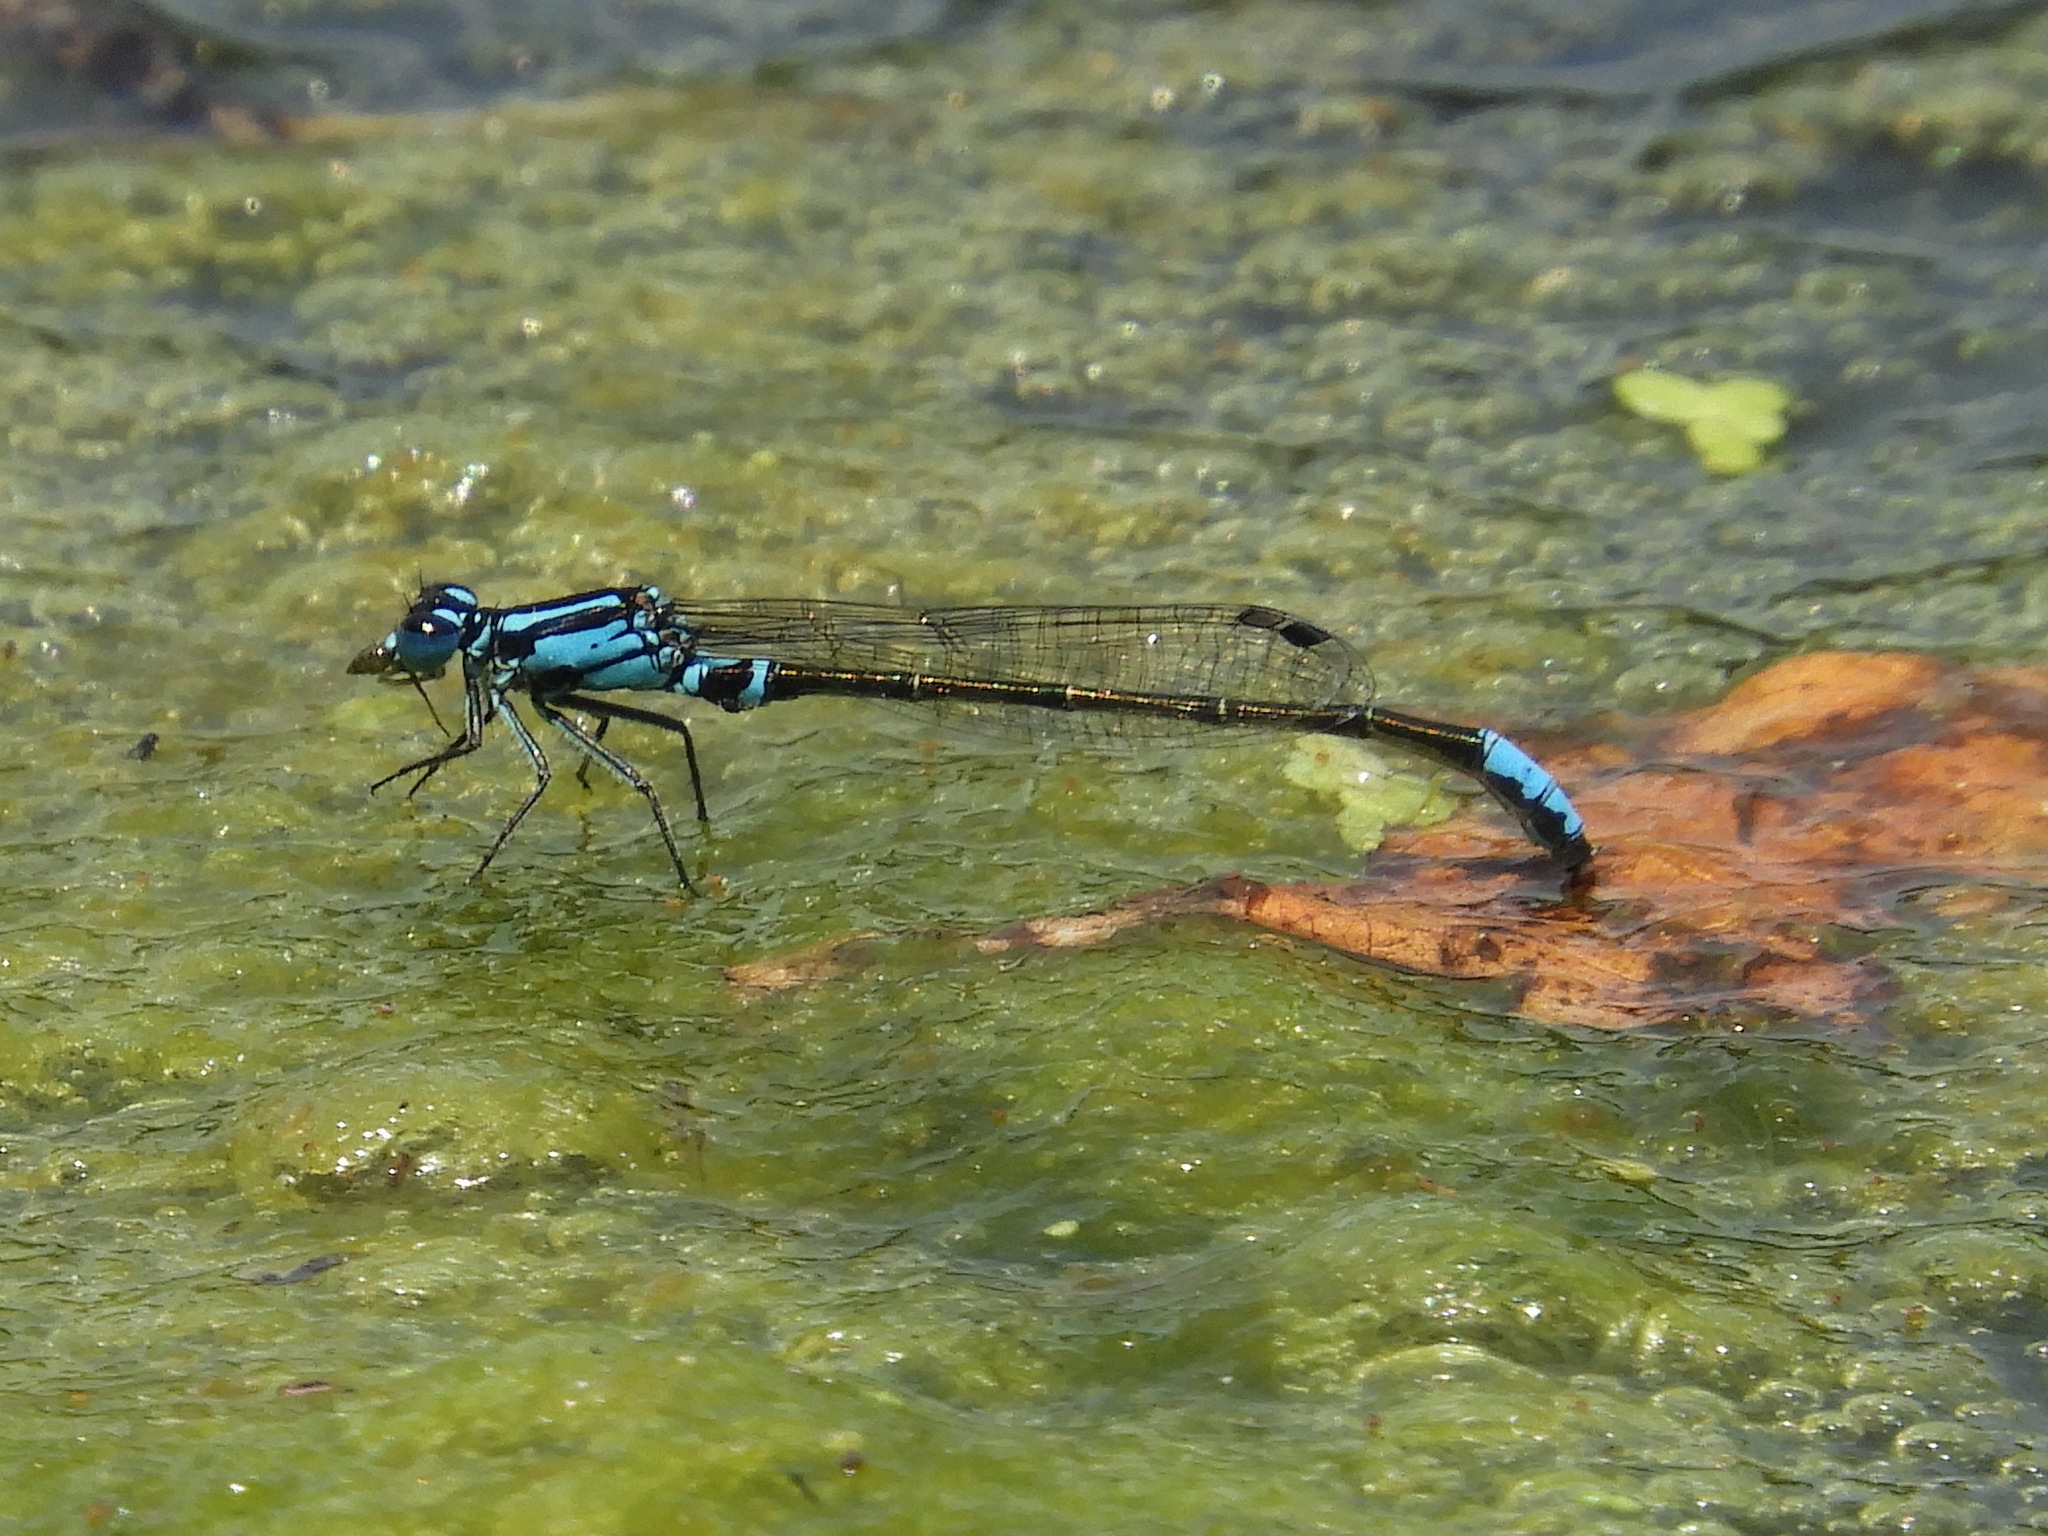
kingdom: Animalia
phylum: Arthropoda
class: Insecta
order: Odonata
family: Coenagrionidae
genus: Ischnura
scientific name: Ischnura kellicotti
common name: Lilypad forktail
